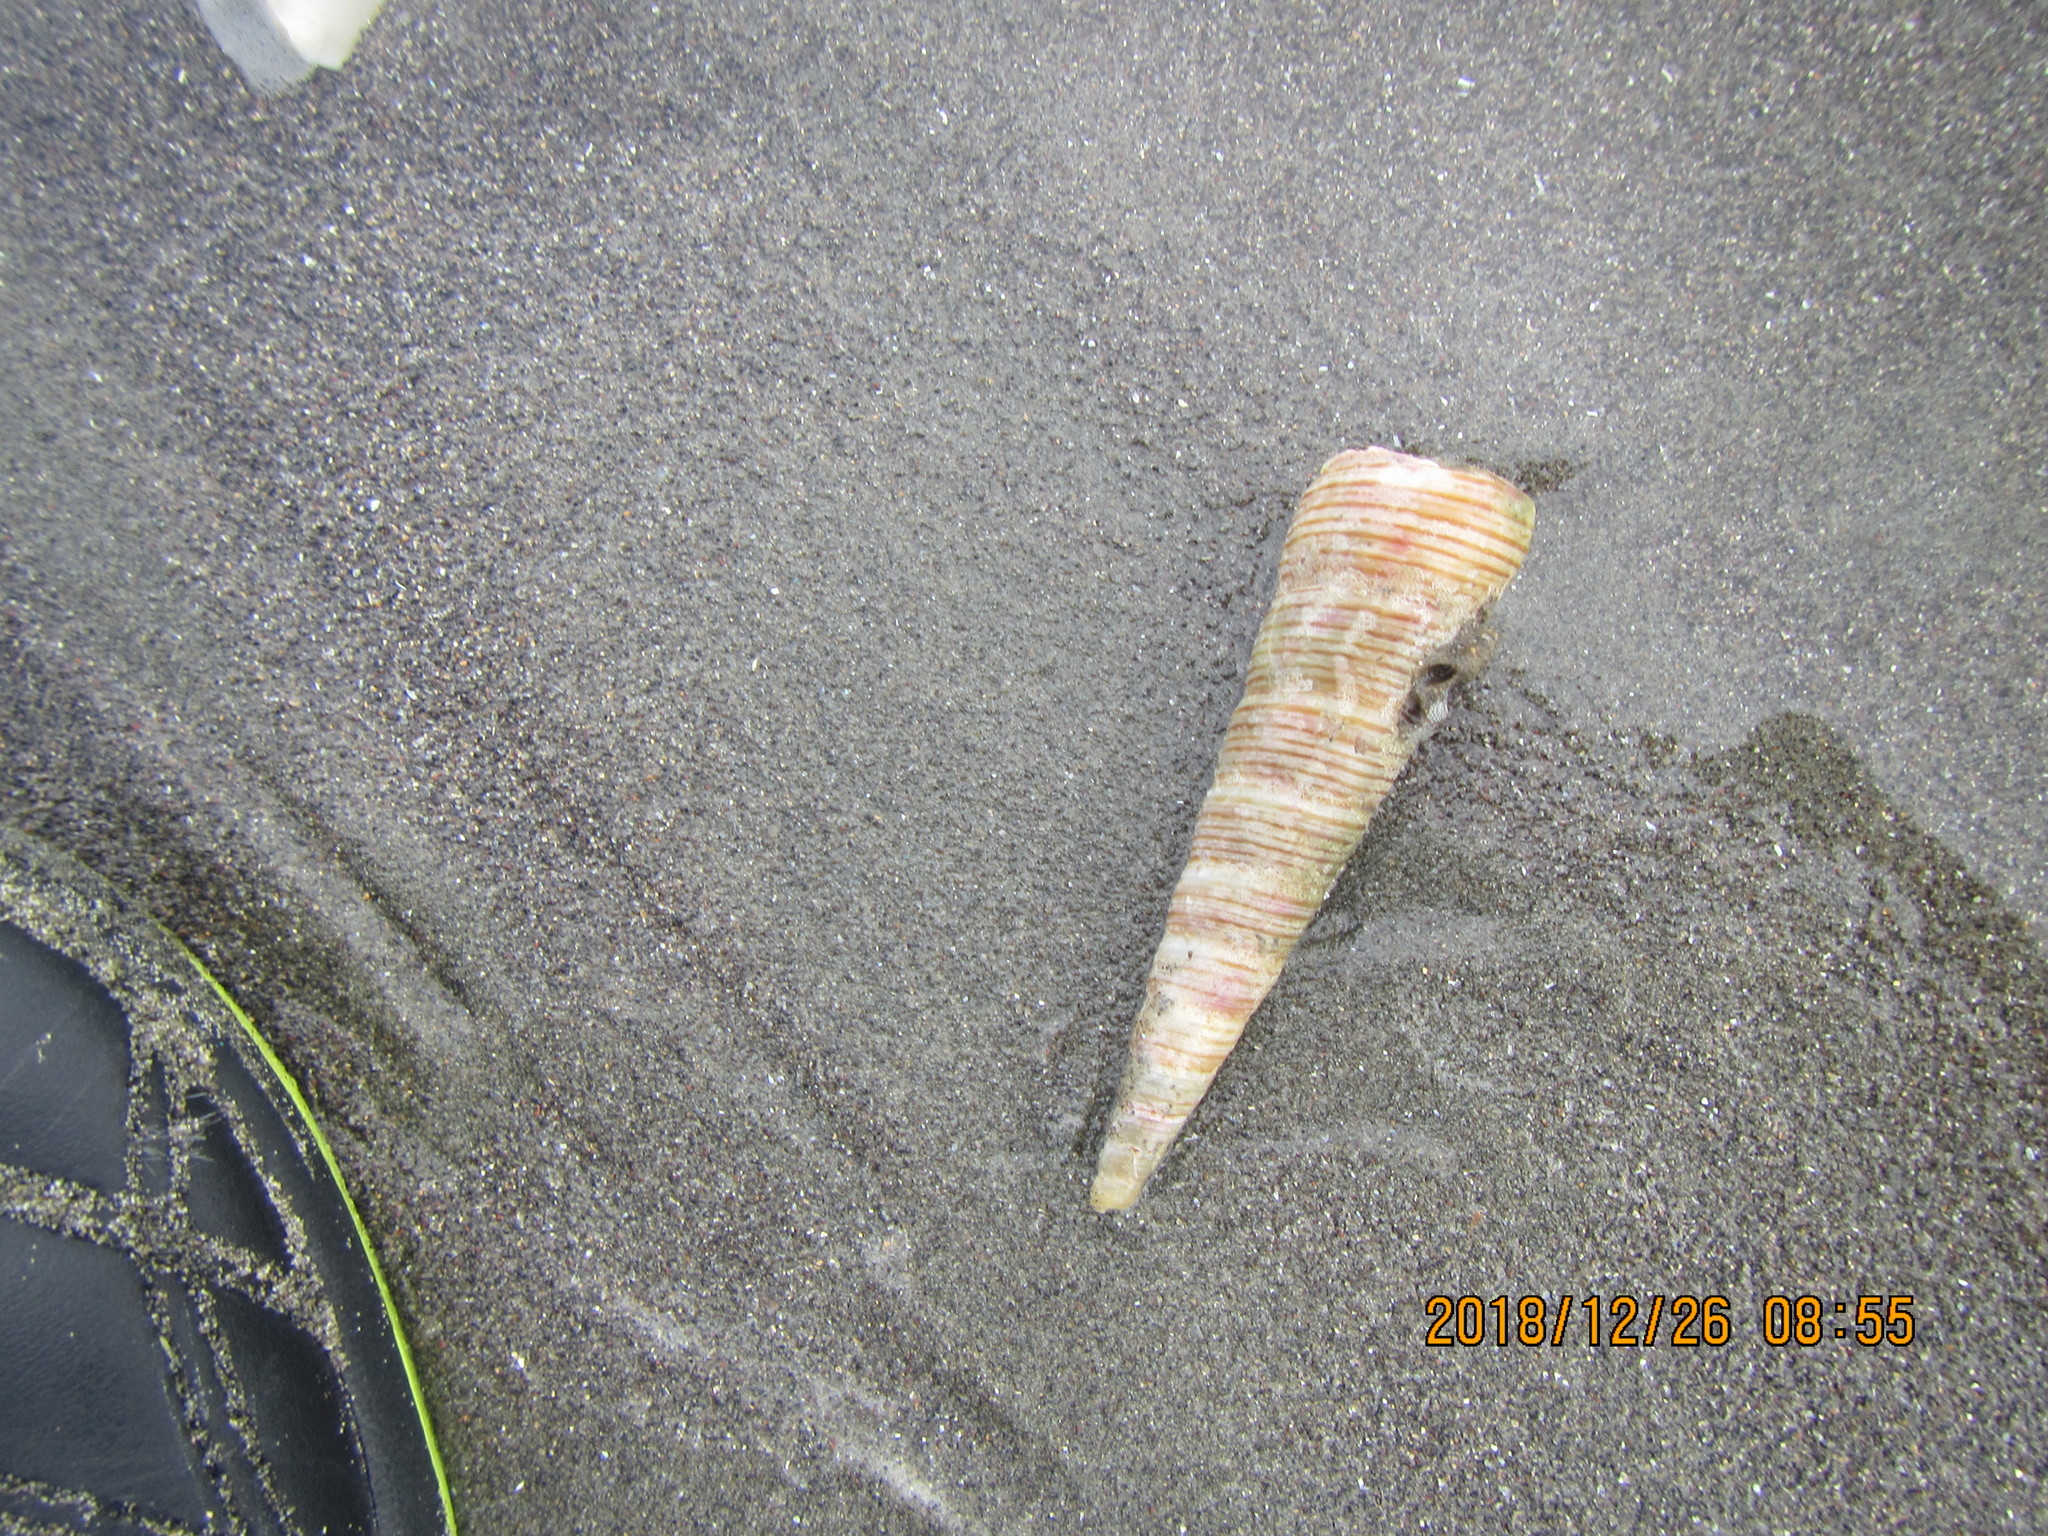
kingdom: Animalia
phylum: Mollusca
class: Gastropoda
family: Turritellidae
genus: Zeacolpus
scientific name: Zeacolpus vittatus
